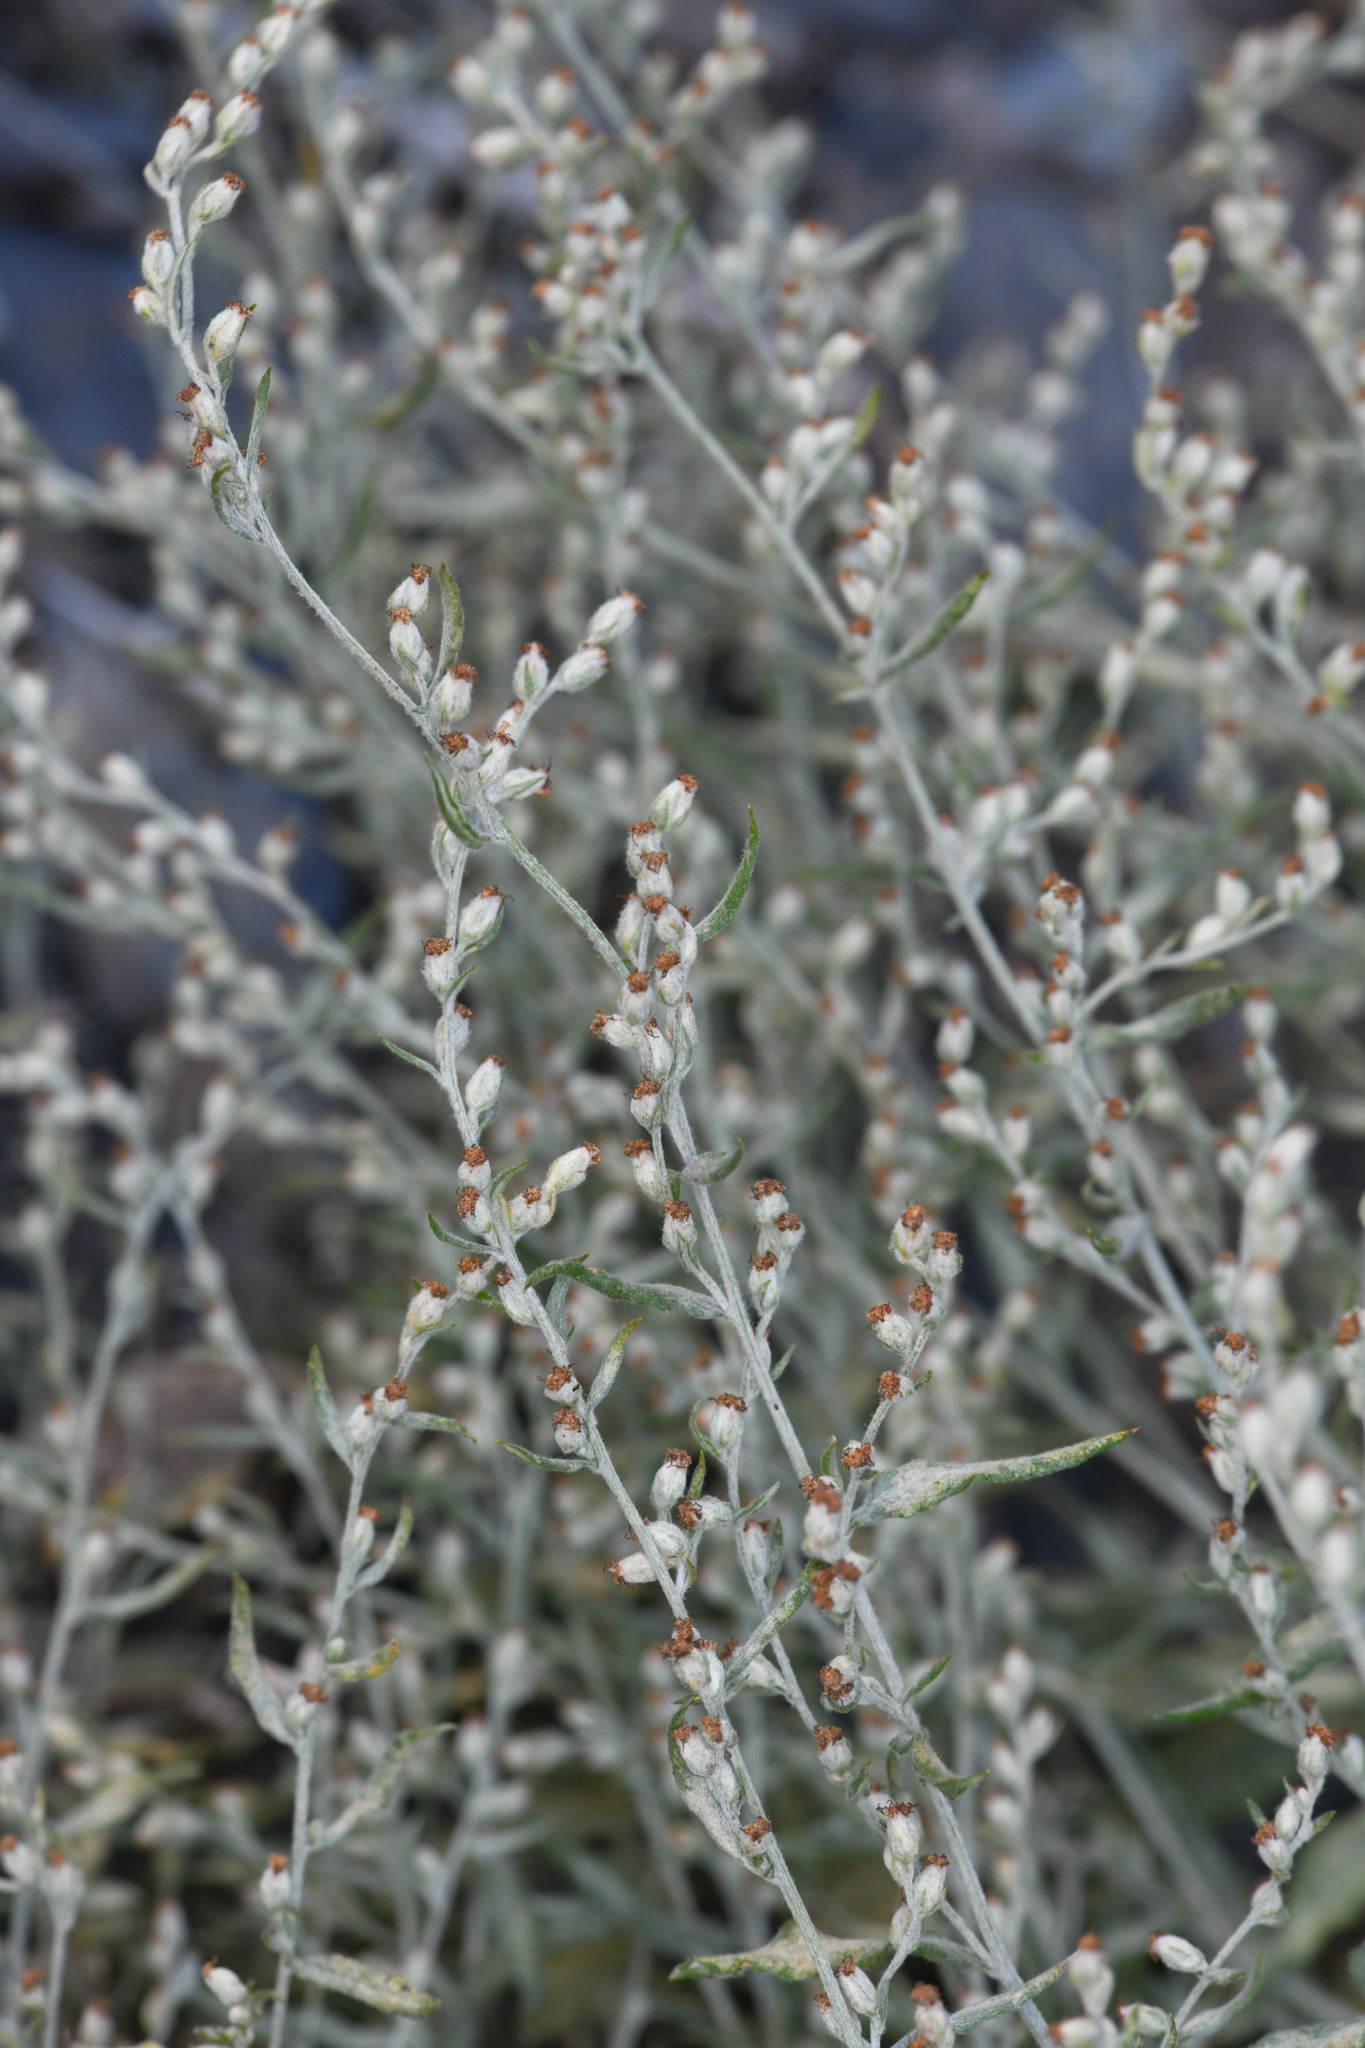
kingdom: Plantae
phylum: Tracheophyta
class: Magnoliopsida
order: Asterales
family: Asteraceae
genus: Artemisia
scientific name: Artemisia ludoviciana
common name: Western mugwort
